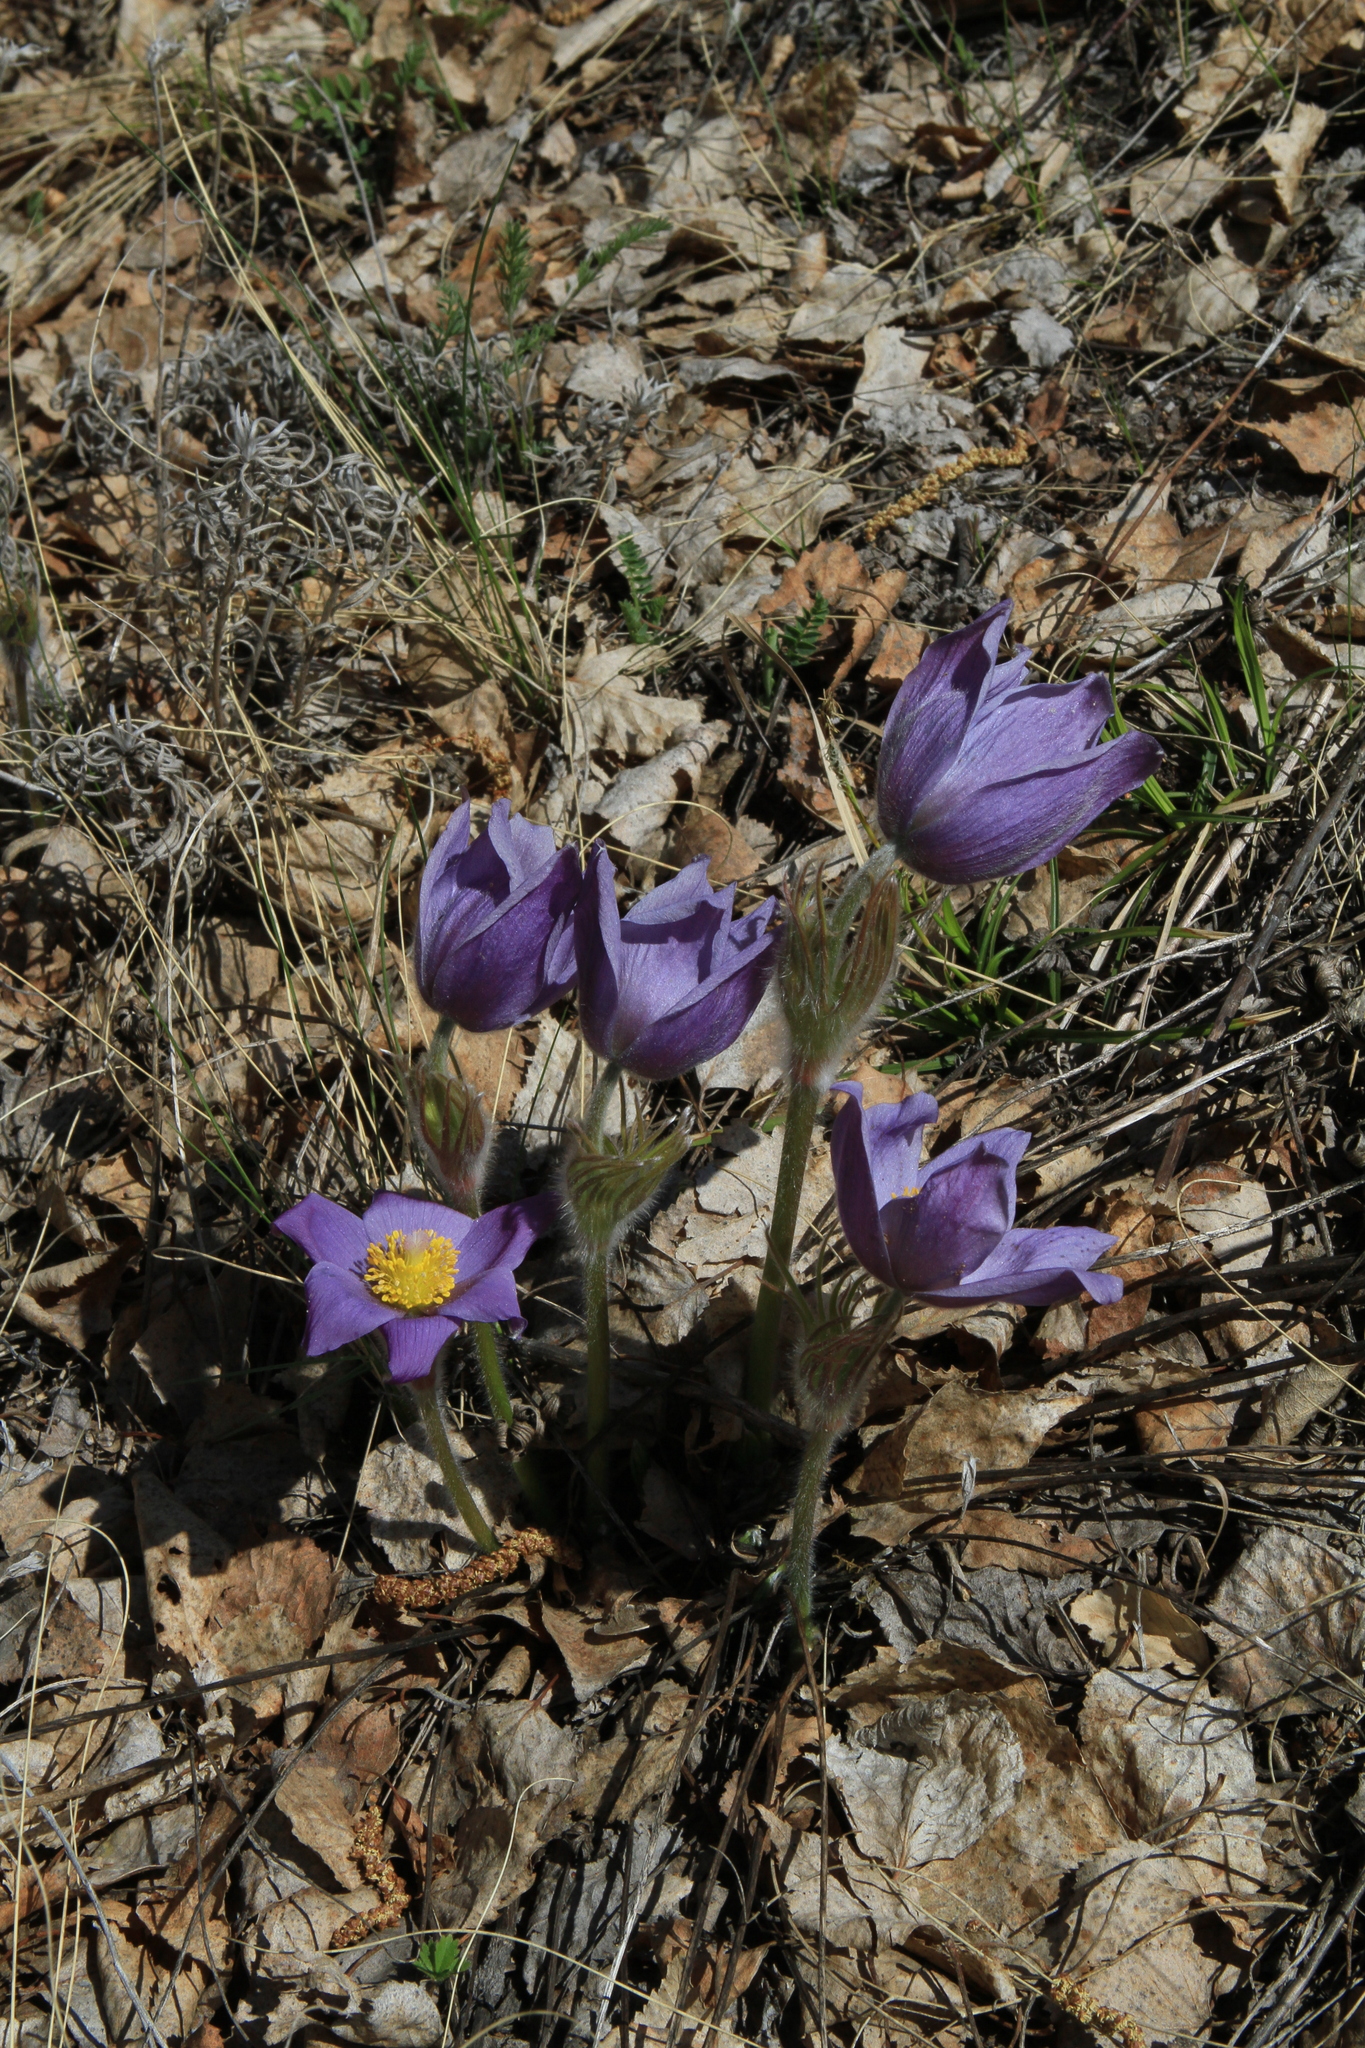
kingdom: Plantae
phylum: Tracheophyta
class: Magnoliopsida
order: Ranunculales
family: Ranunculaceae
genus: Pulsatilla
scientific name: Pulsatilla patens
